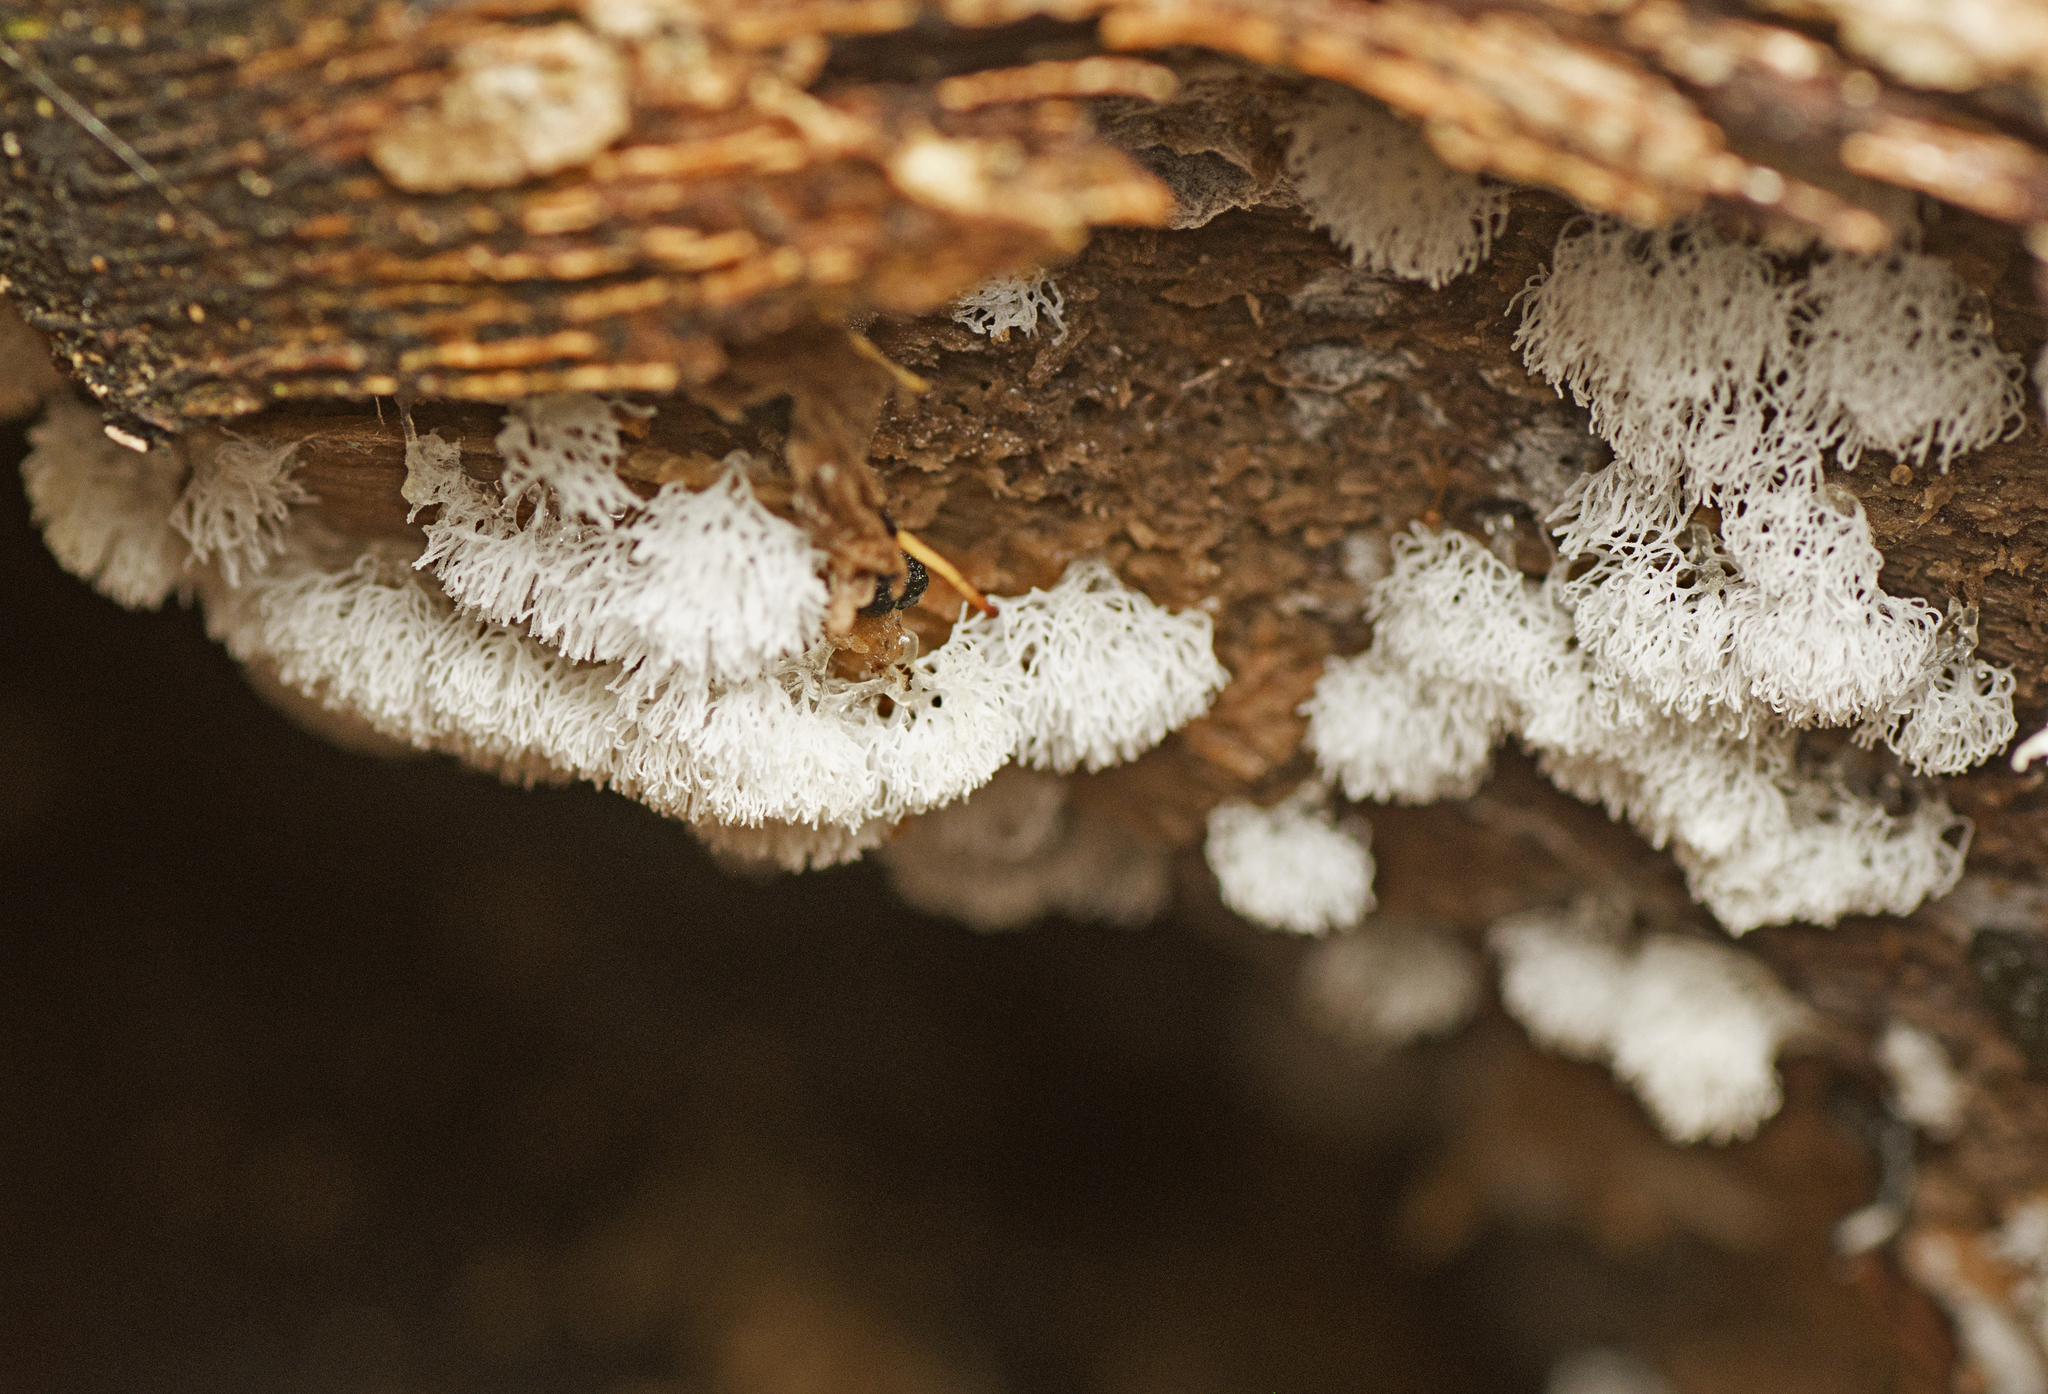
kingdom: Protozoa
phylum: Mycetozoa
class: Protosteliomycetes
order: Ceratiomyxales
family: Ceratiomyxaceae
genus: Ceratiomyxa
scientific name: Ceratiomyxa fruticulosa
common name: Honeycomb coral slime mold
